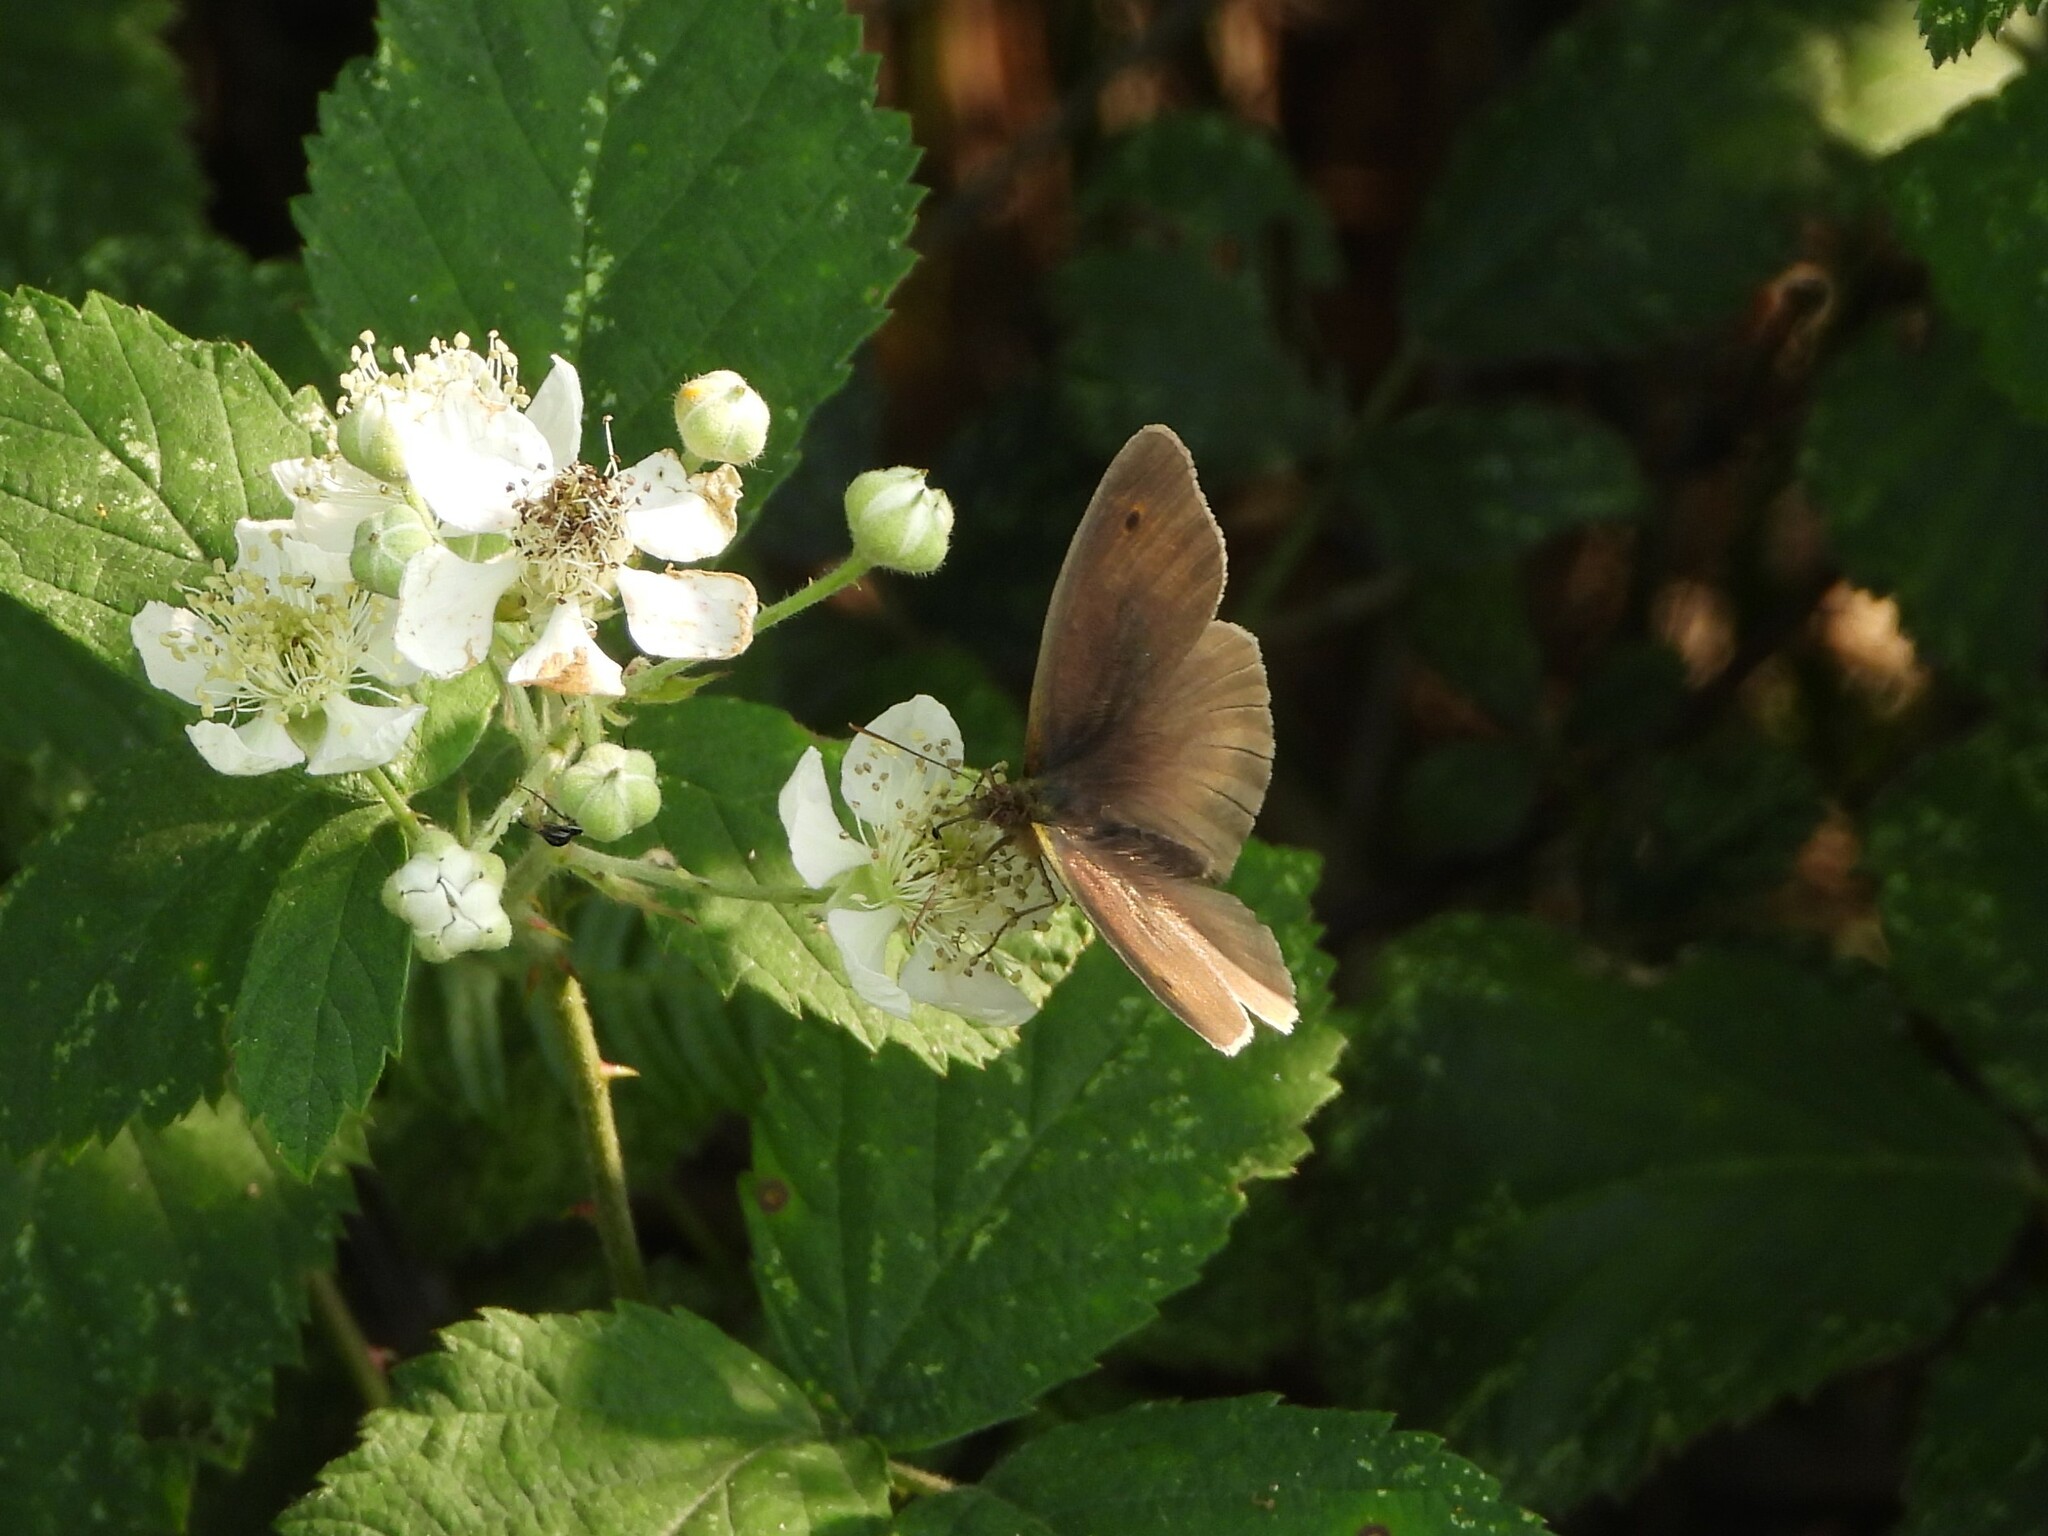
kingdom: Animalia
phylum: Arthropoda
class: Insecta
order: Lepidoptera
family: Nymphalidae
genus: Maniola
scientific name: Maniola jurtina
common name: Meadow brown
